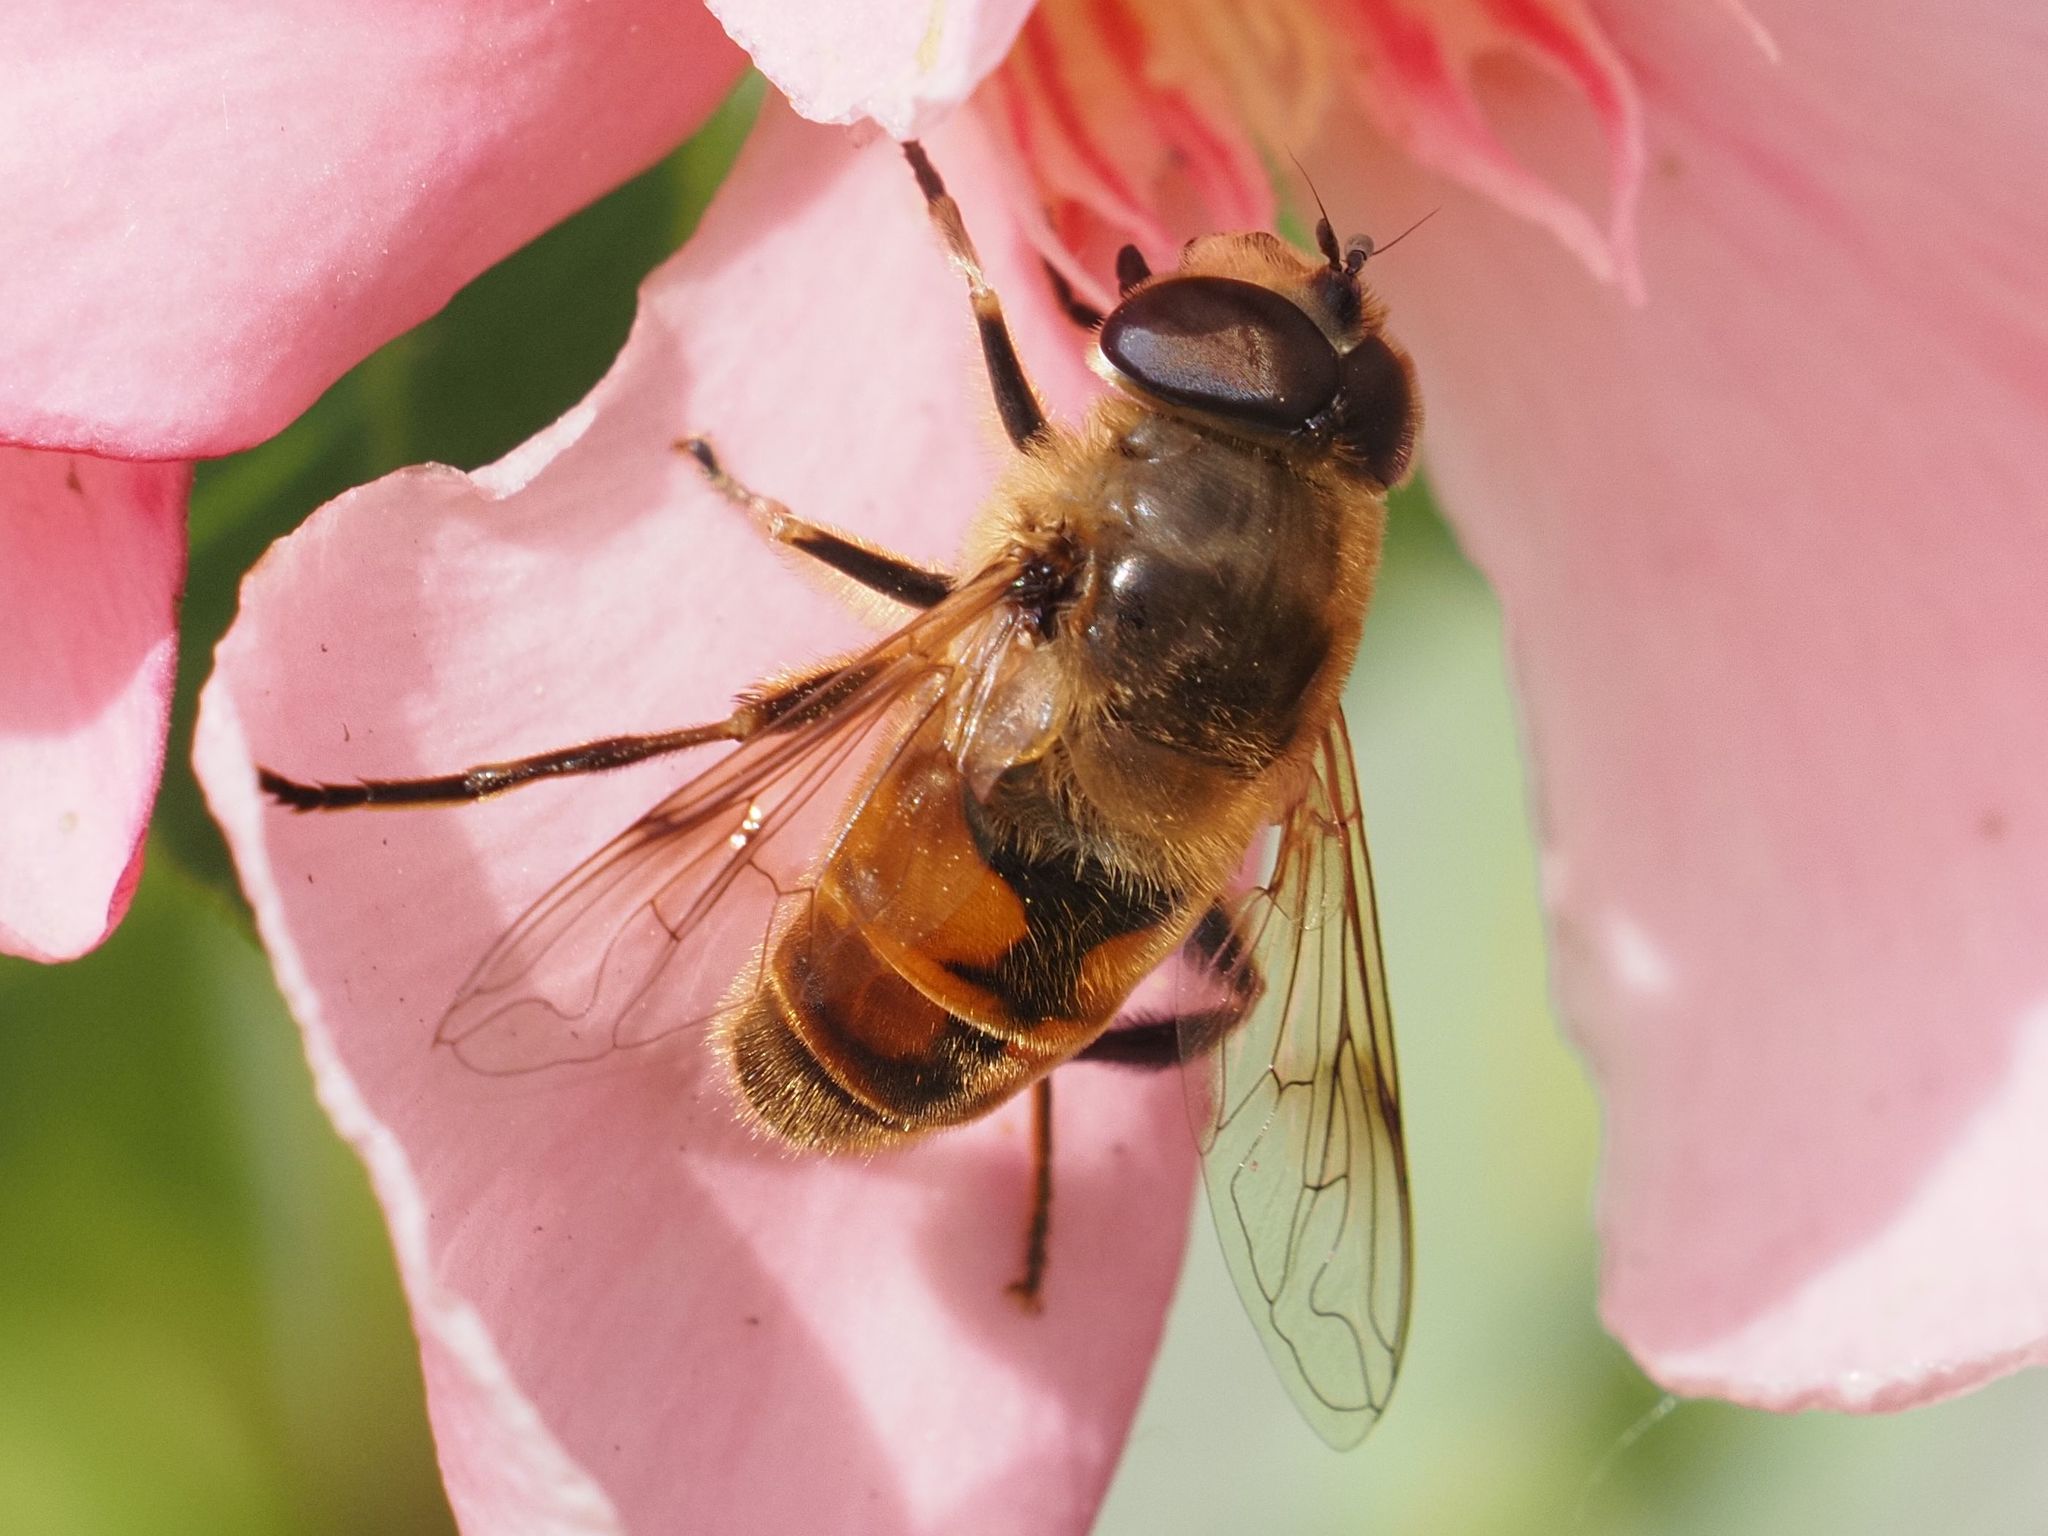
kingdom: Animalia
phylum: Arthropoda
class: Insecta
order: Diptera
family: Syrphidae
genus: Eristalis
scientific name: Eristalis tenax
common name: Drone fly
